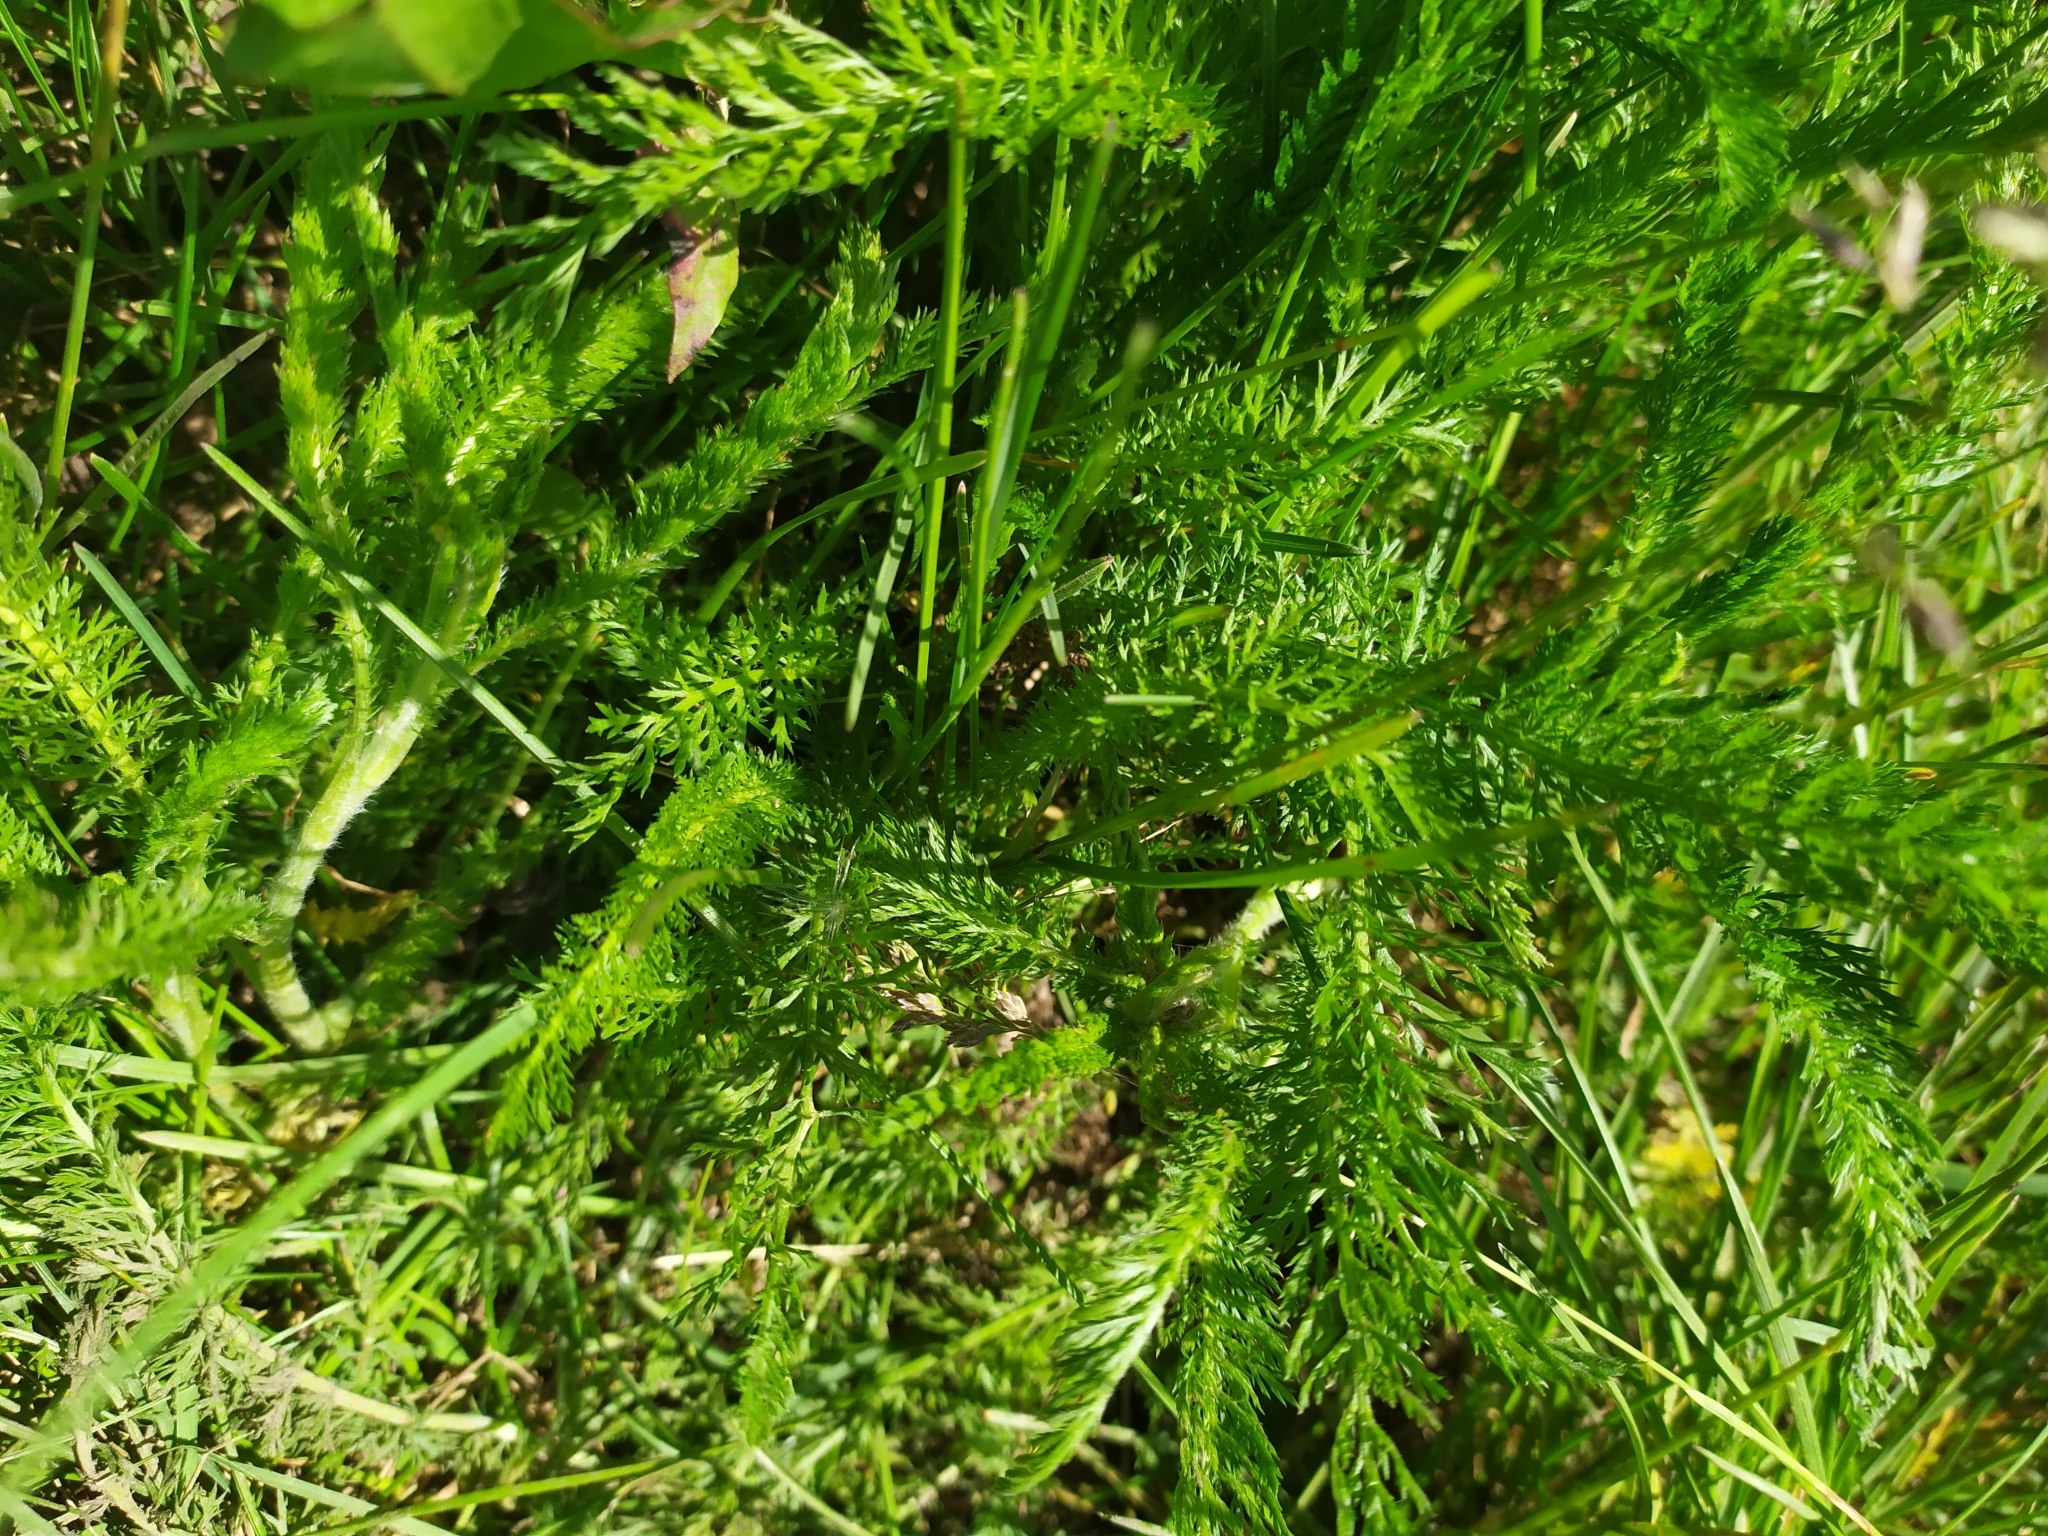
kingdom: Plantae
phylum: Tracheophyta
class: Magnoliopsida
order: Asterales
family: Asteraceae
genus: Achillea
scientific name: Achillea millefolium
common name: Yarrow
